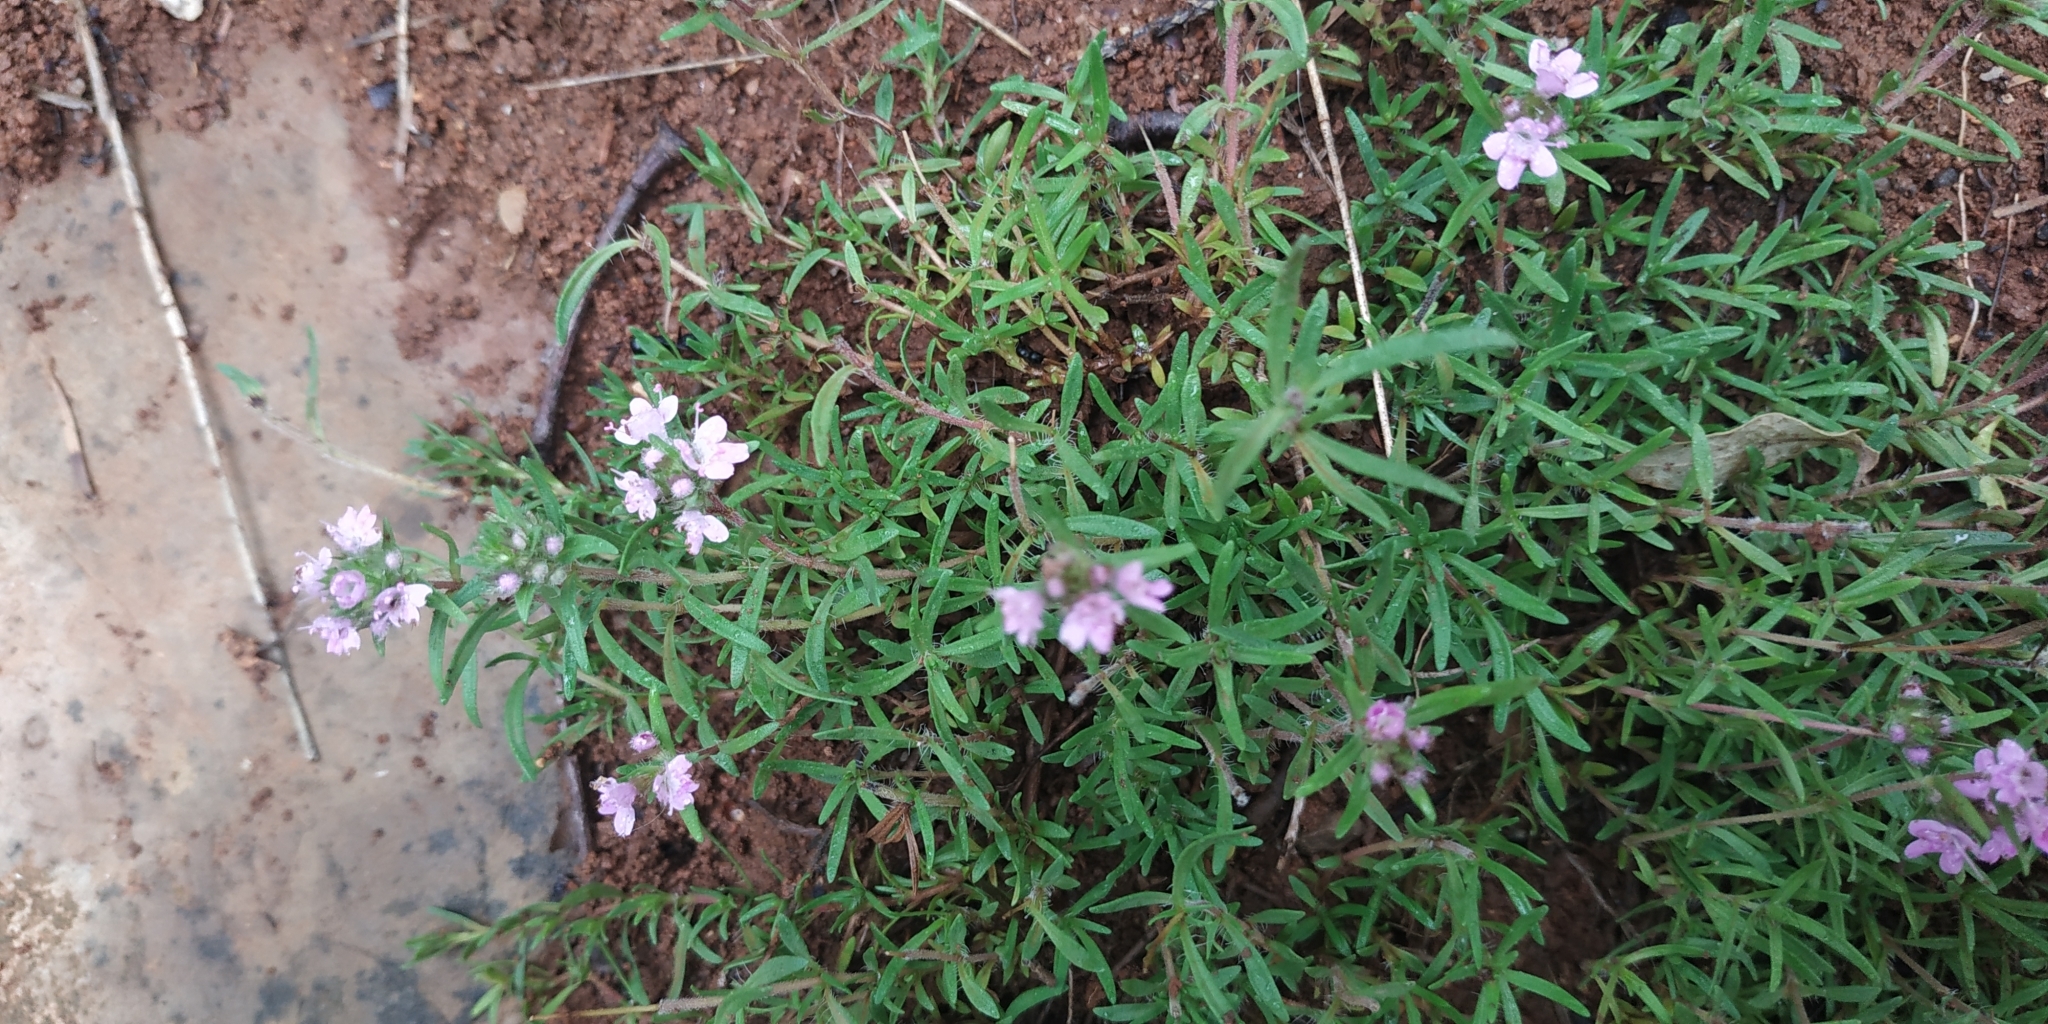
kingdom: Plantae
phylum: Tracheophyta
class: Magnoliopsida
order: Lamiales
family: Lamiaceae
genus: Thymus
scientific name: Thymus callieri
